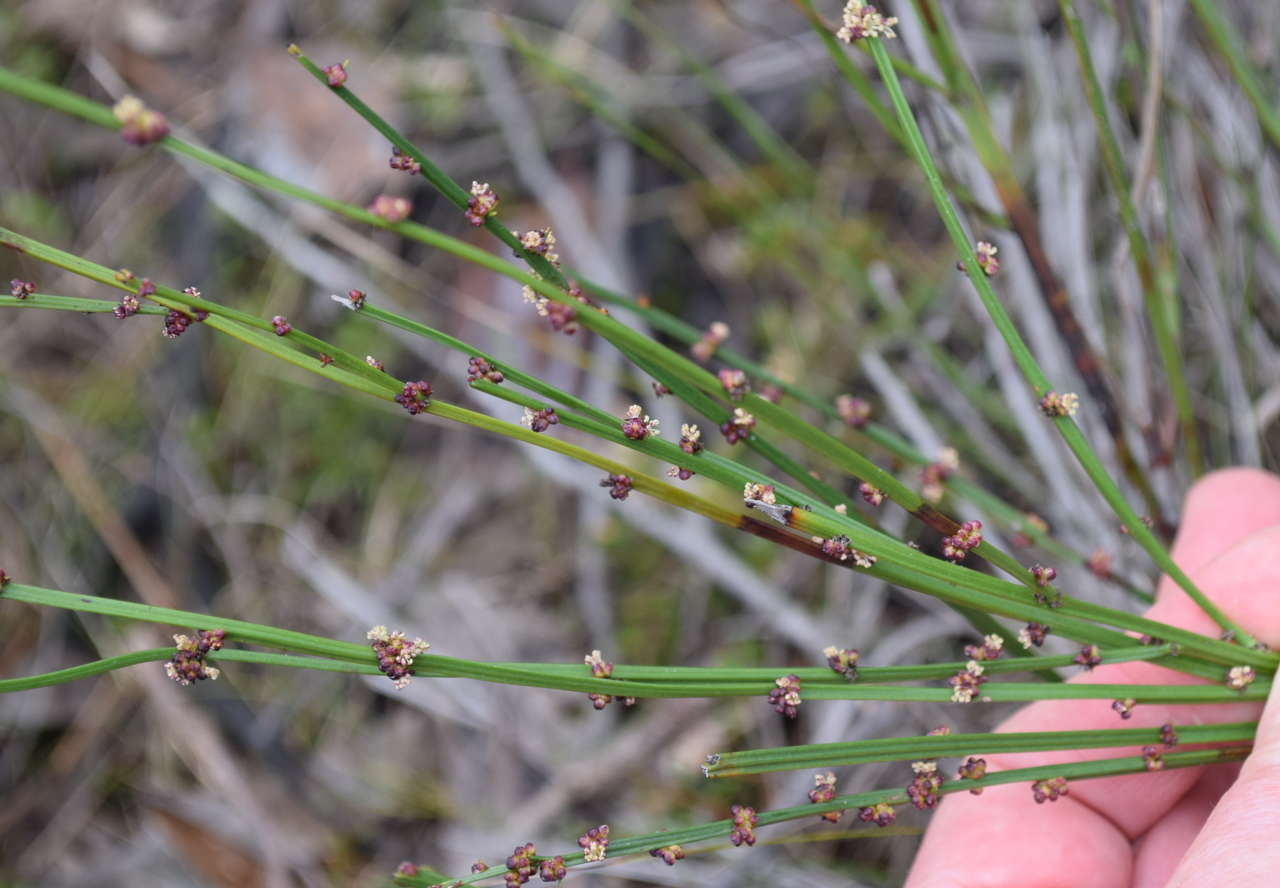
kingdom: Plantae
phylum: Tracheophyta
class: Magnoliopsida
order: Malpighiales
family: Euphorbiaceae
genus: Amperea
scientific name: Amperea xiphoclada
